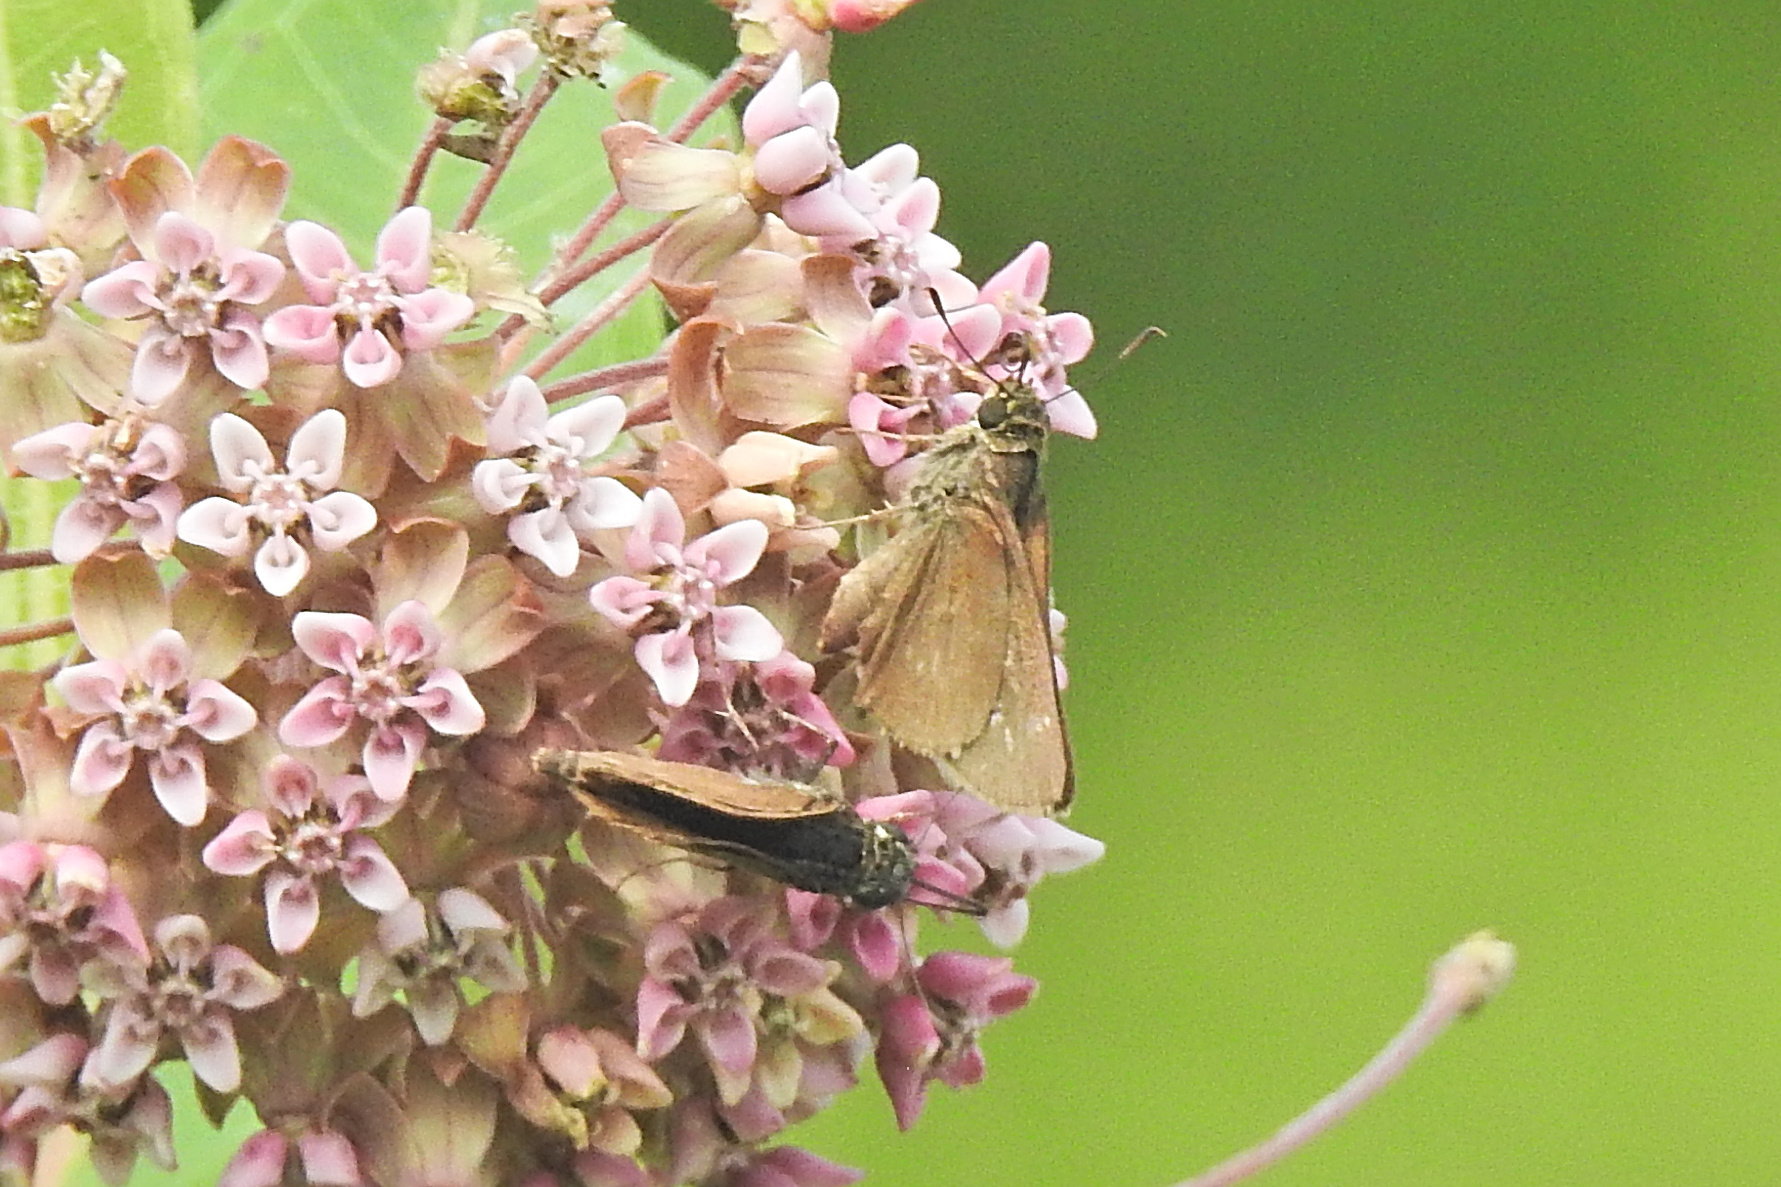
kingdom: Animalia
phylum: Arthropoda
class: Insecta
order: Lepidoptera
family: Hesperiidae
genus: Vernia
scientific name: Vernia verna
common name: Little glassywing
